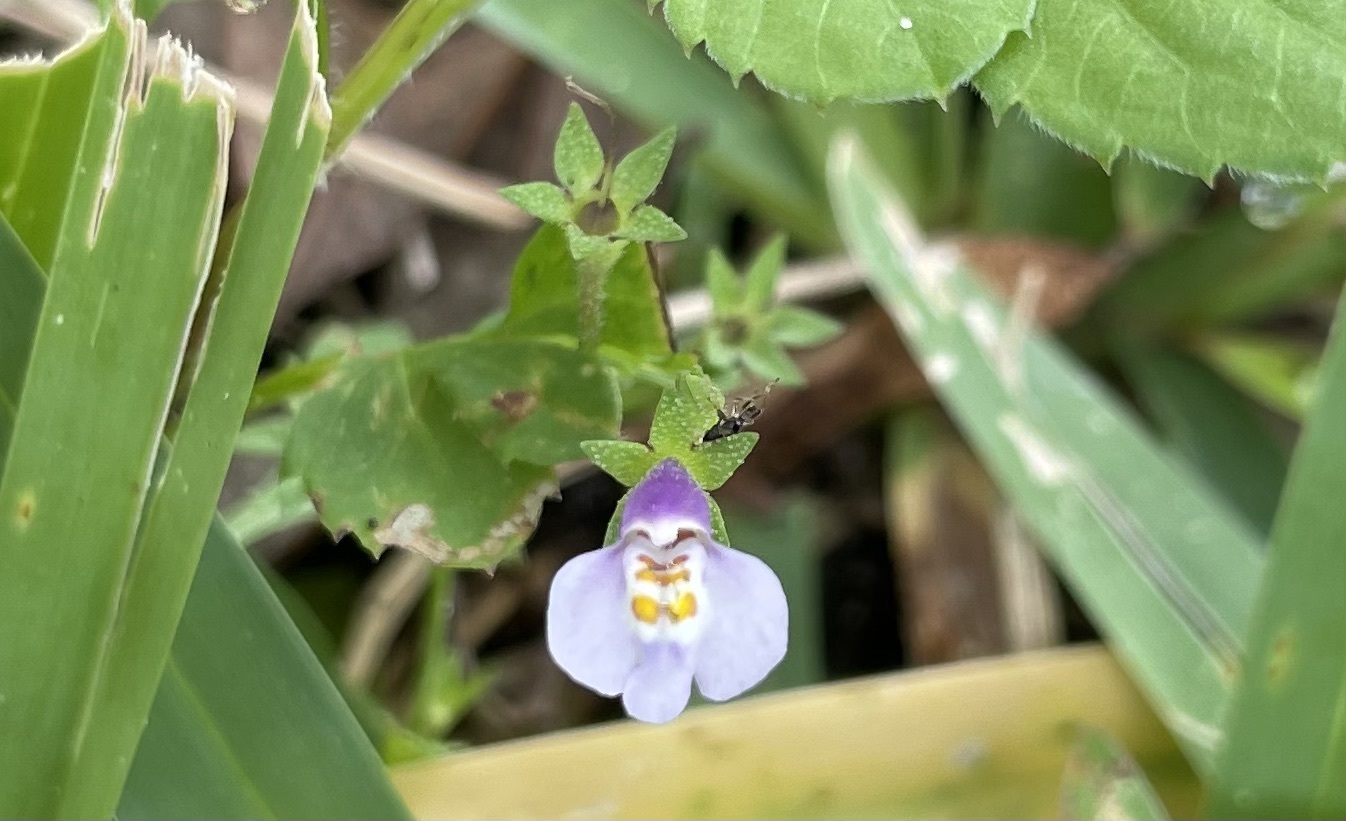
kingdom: Plantae
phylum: Tracheophyta
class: Magnoliopsida
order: Lamiales
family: Mazaceae
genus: Mazus
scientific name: Mazus pumilus
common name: Japanese mazus
